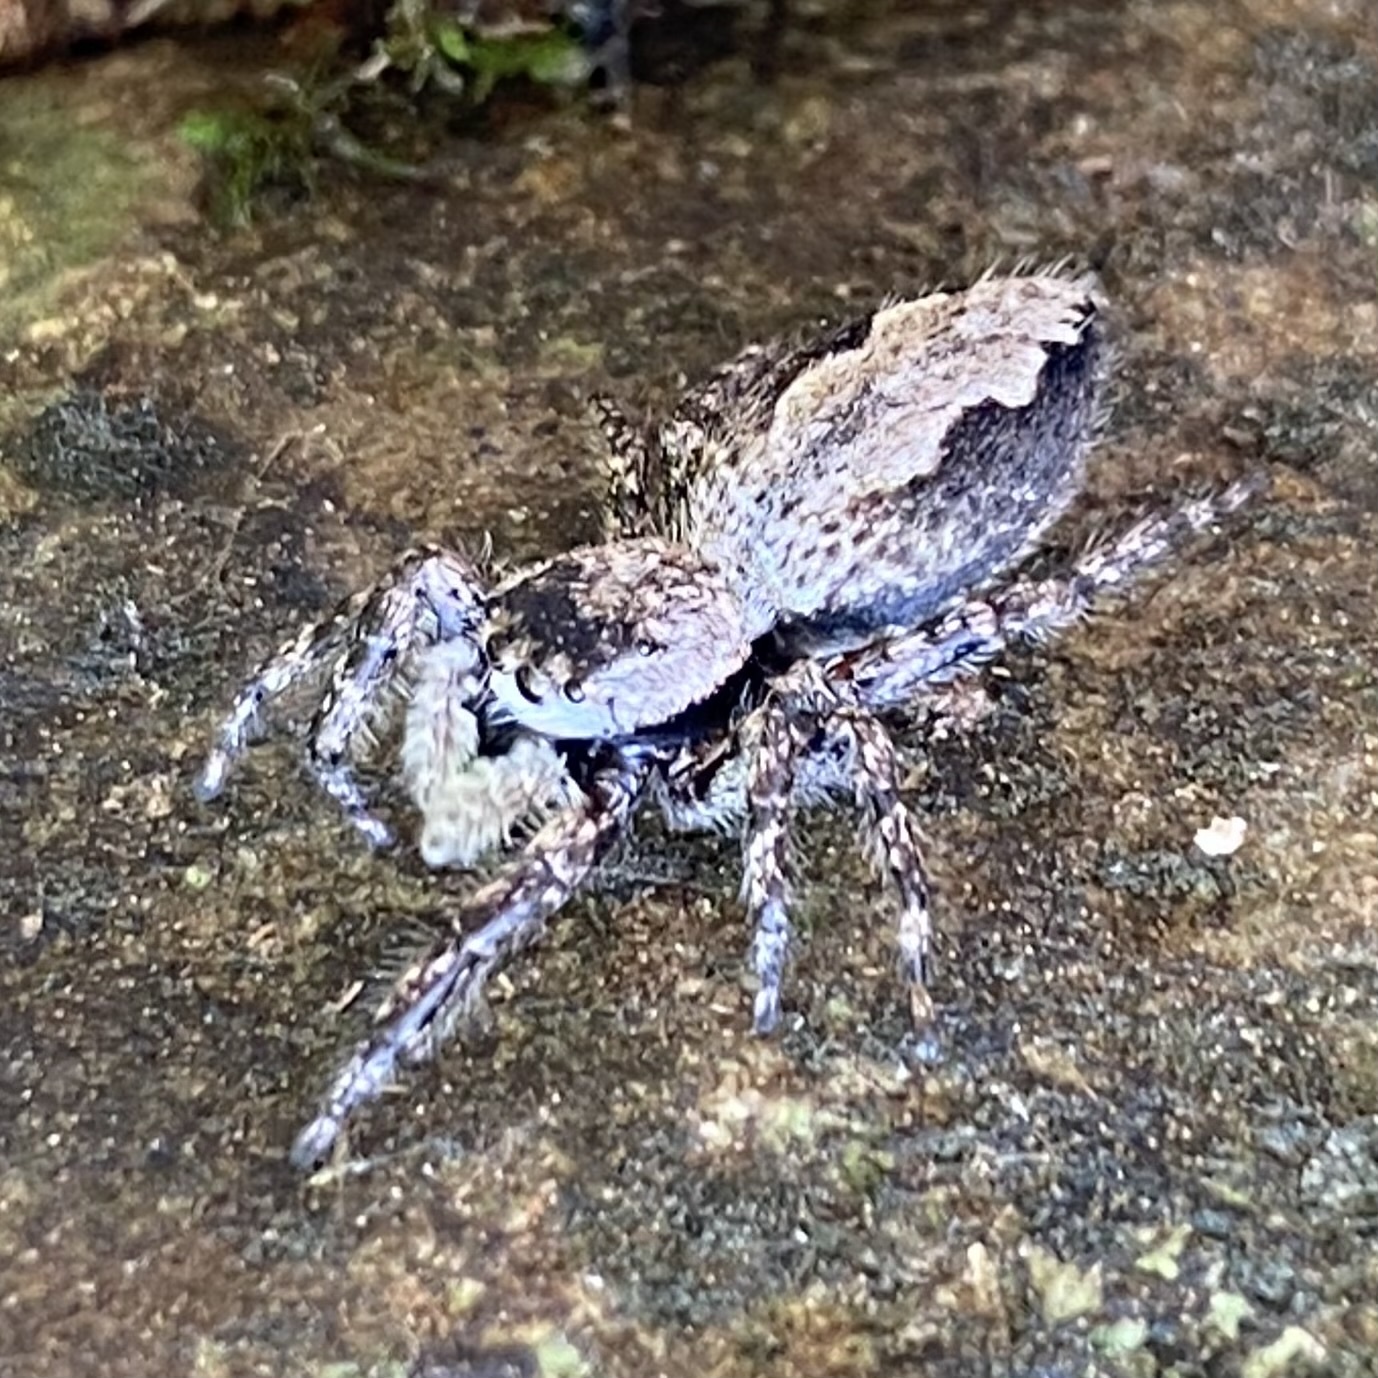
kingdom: Animalia
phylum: Arthropoda
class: Arachnida
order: Araneae
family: Salticidae
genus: Platycryptus
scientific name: Platycryptus undatus
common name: Tan jumping spider
